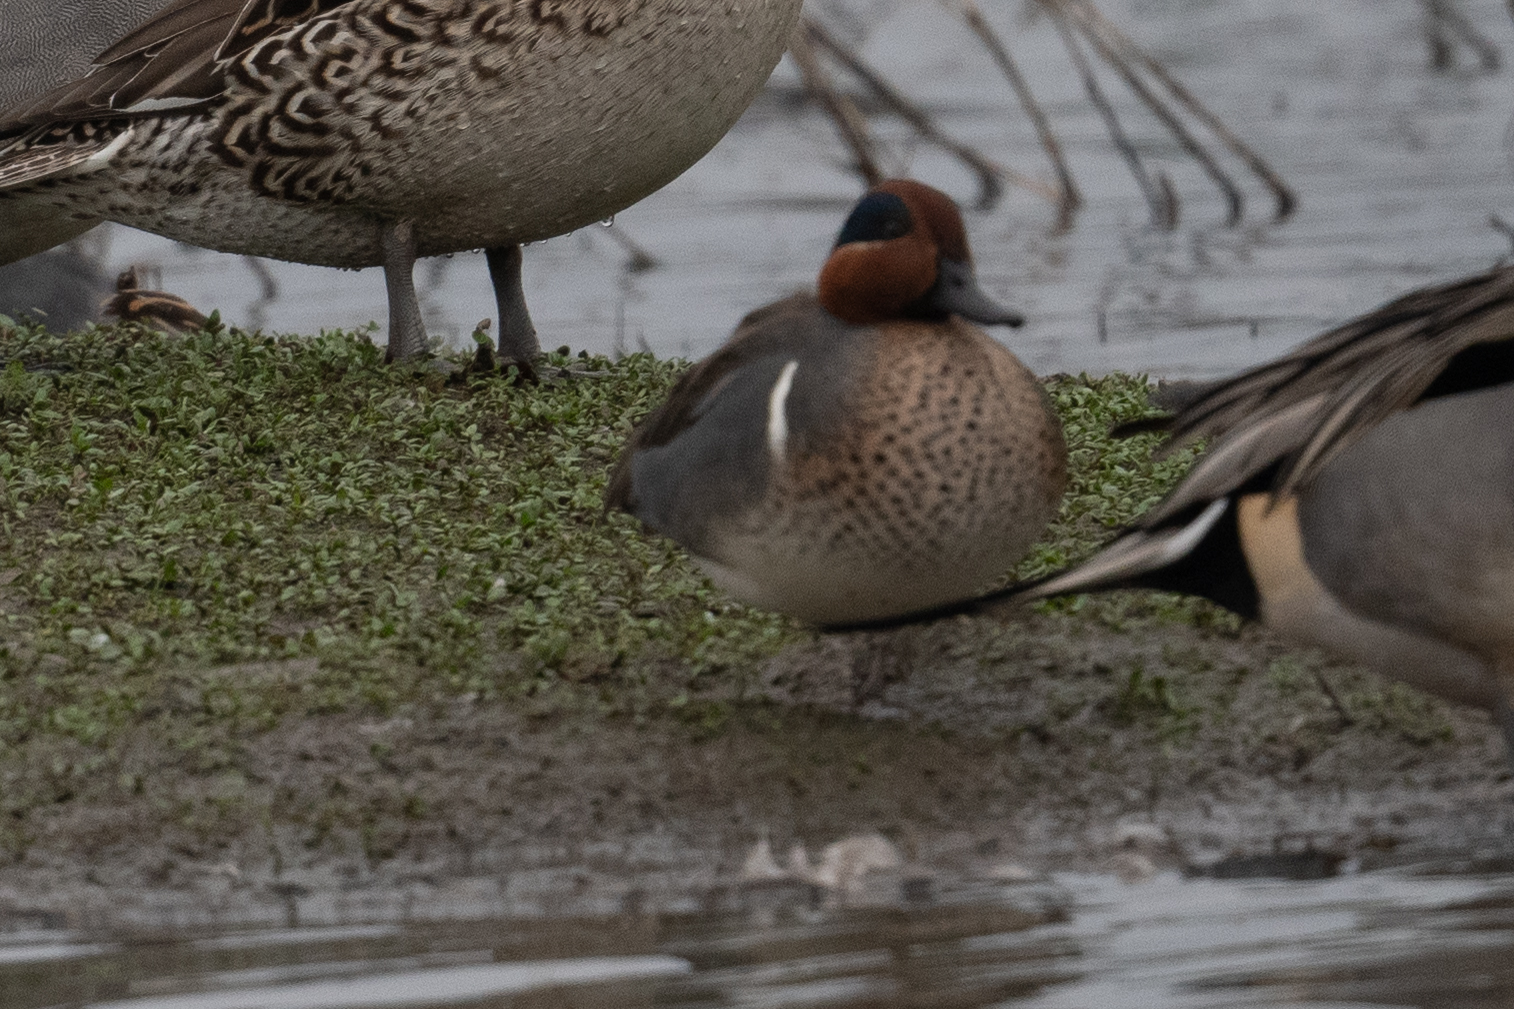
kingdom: Animalia
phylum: Chordata
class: Aves
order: Anseriformes
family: Anatidae
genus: Anas
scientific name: Anas crecca
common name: Eurasian teal
